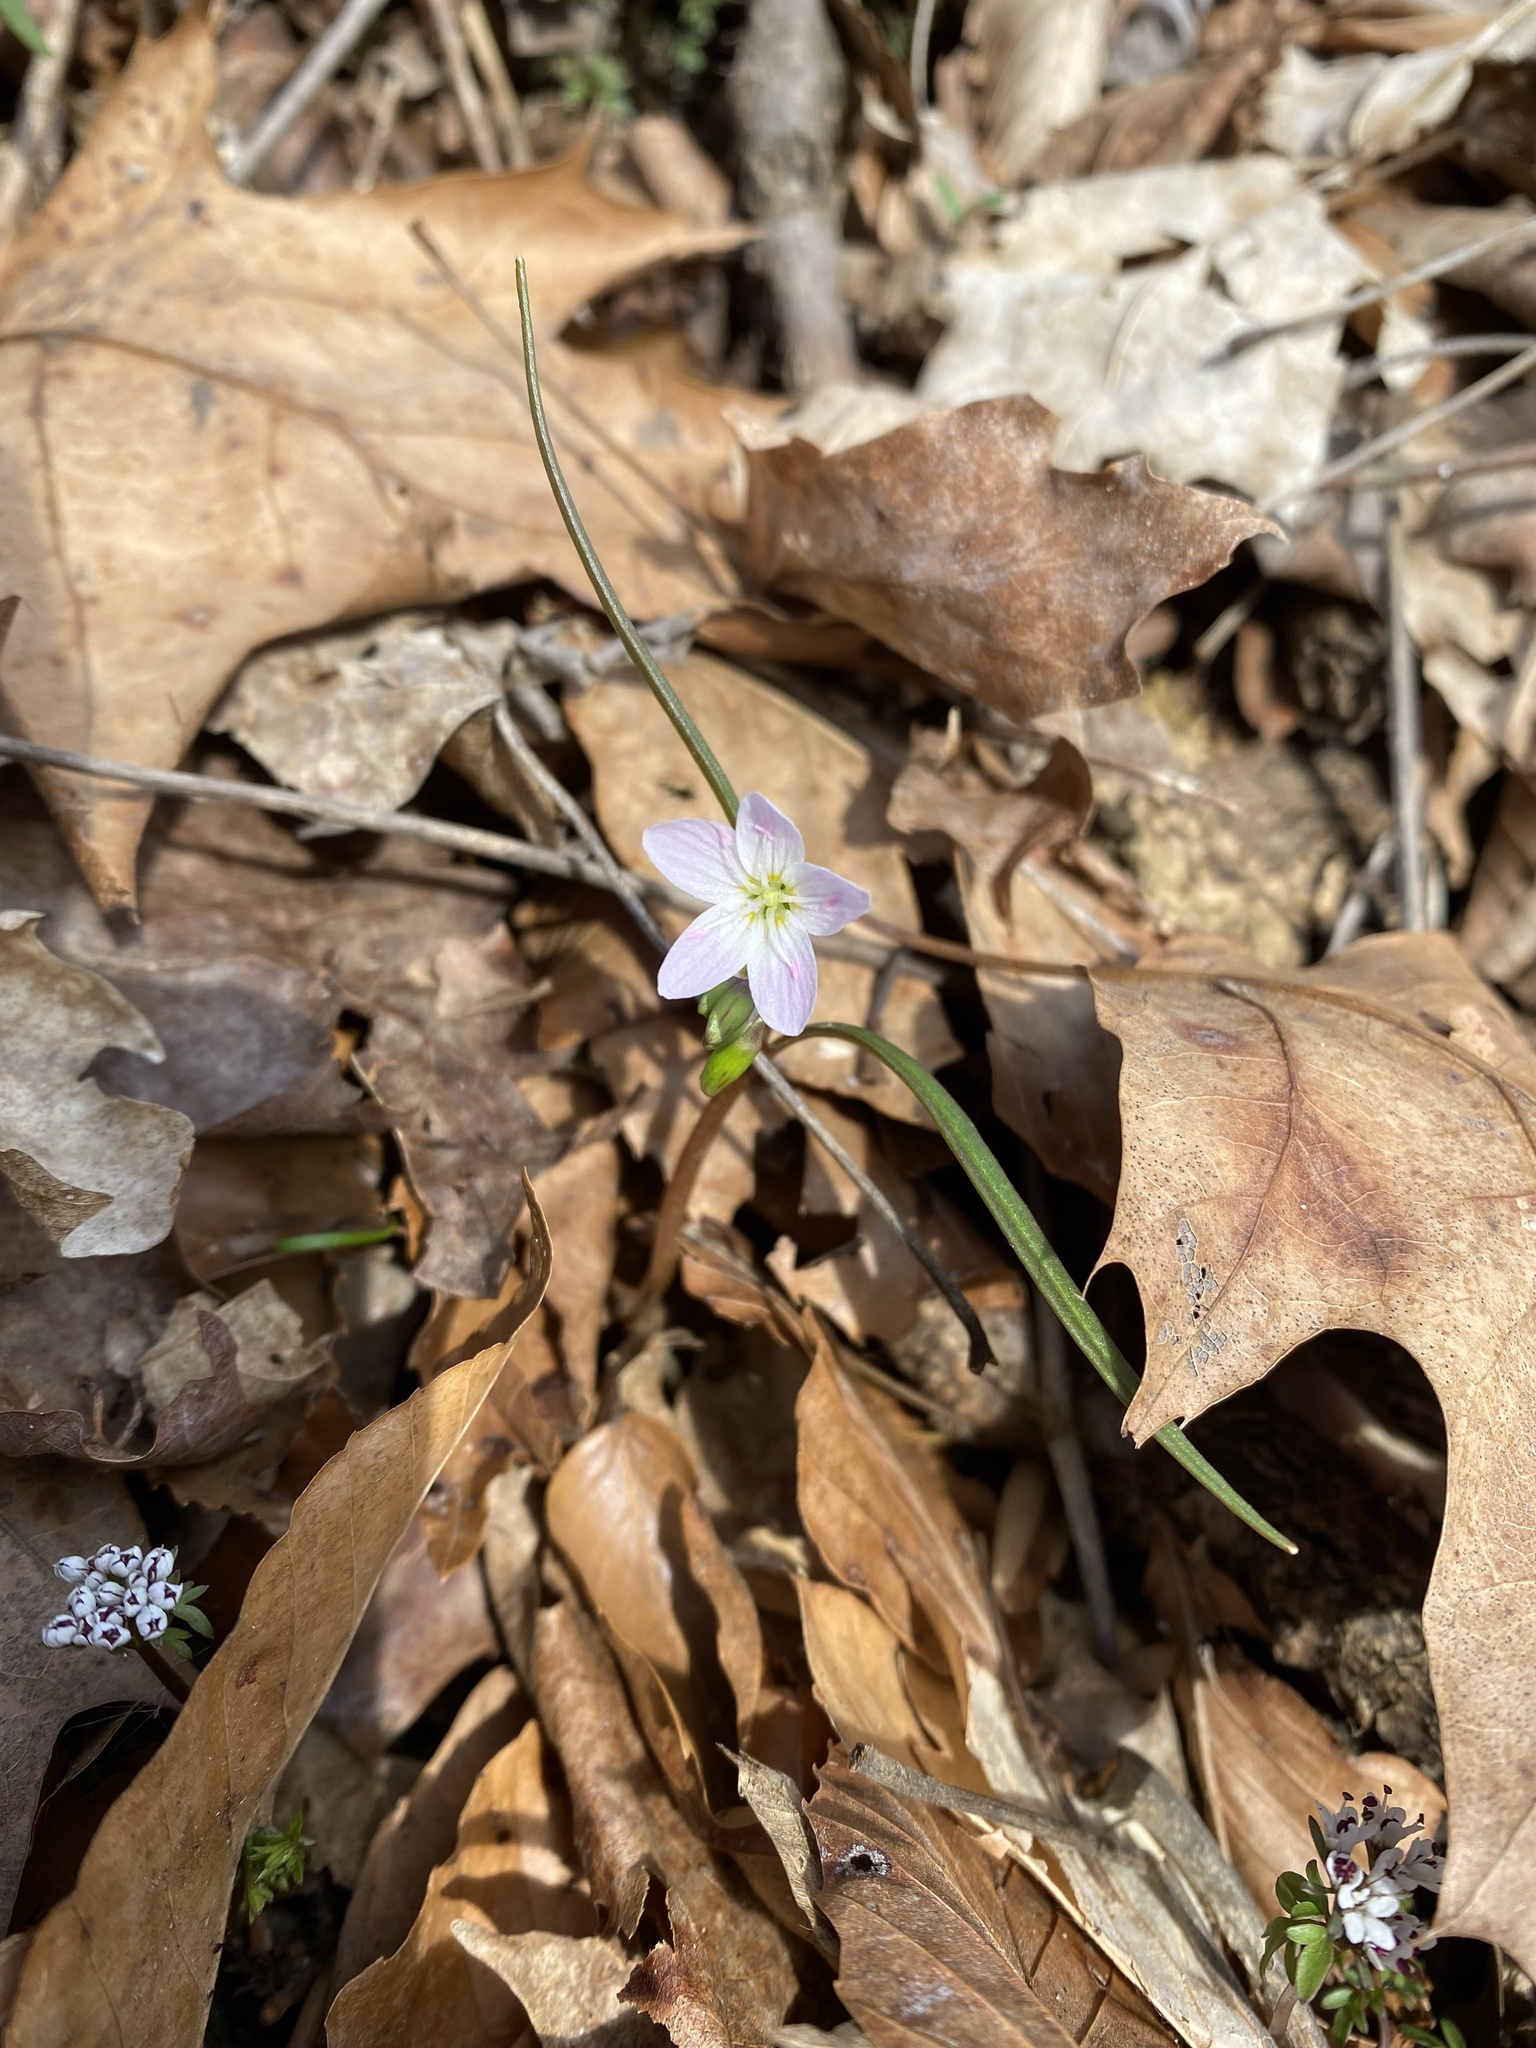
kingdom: Plantae
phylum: Tracheophyta
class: Magnoliopsida
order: Caryophyllales
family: Montiaceae
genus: Claytonia
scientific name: Claytonia virginica
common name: Virginia springbeauty
